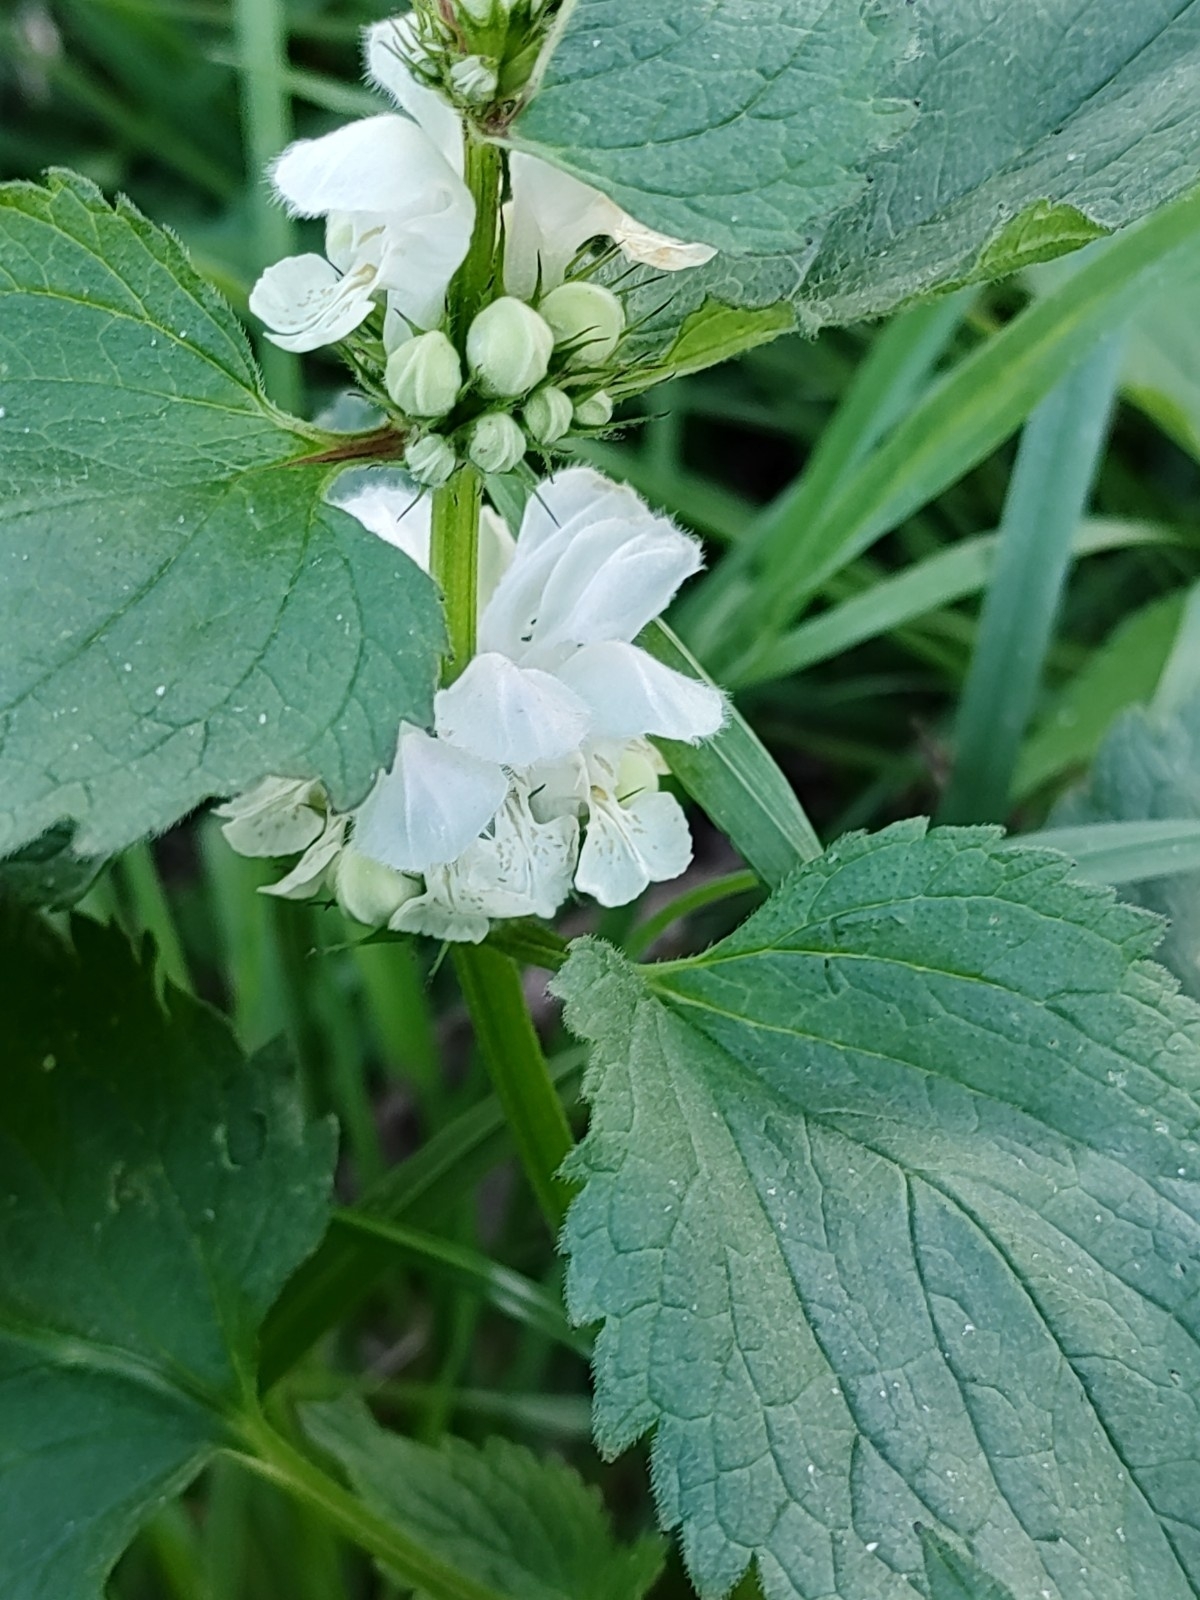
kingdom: Plantae
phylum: Tracheophyta
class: Magnoliopsida
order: Lamiales
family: Lamiaceae
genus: Lamium
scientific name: Lamium album
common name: White dead-nettle
